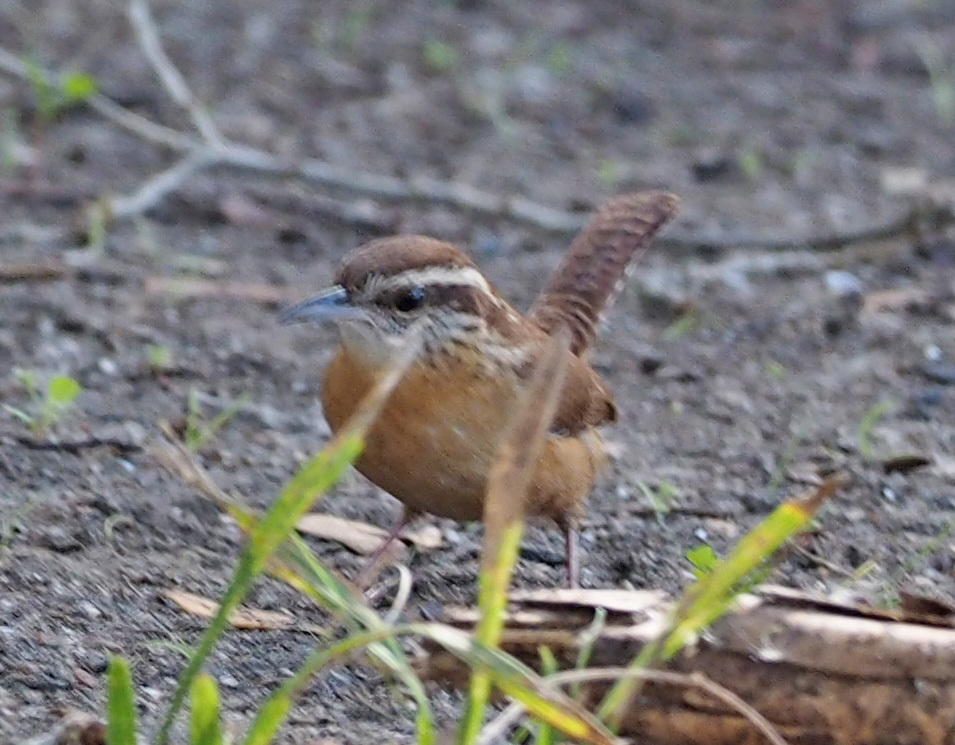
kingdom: Animalia
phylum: Chordata
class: Aves
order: Passeriformes
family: Troglodytidae
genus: Thryothorus
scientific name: Thryothorus ludovicianus
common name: Carolina wren
